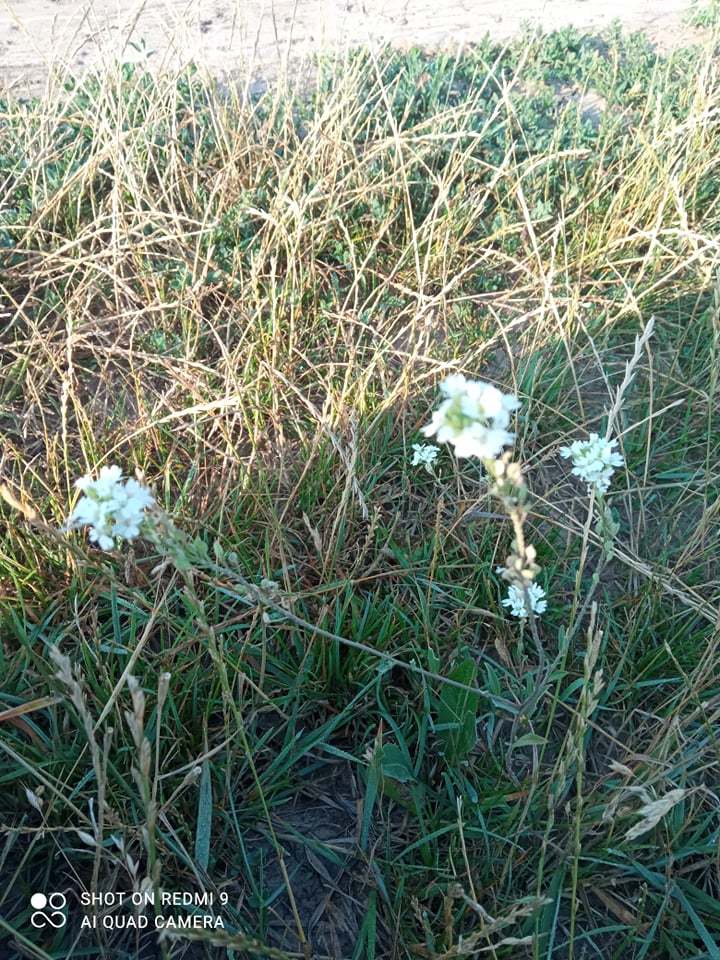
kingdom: Plantae
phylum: Tracheophyta
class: Magnoliopsida
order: Brassicales
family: Brassicaceae
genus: Berteroa
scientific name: Berteroa incana
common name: Hoary alison
